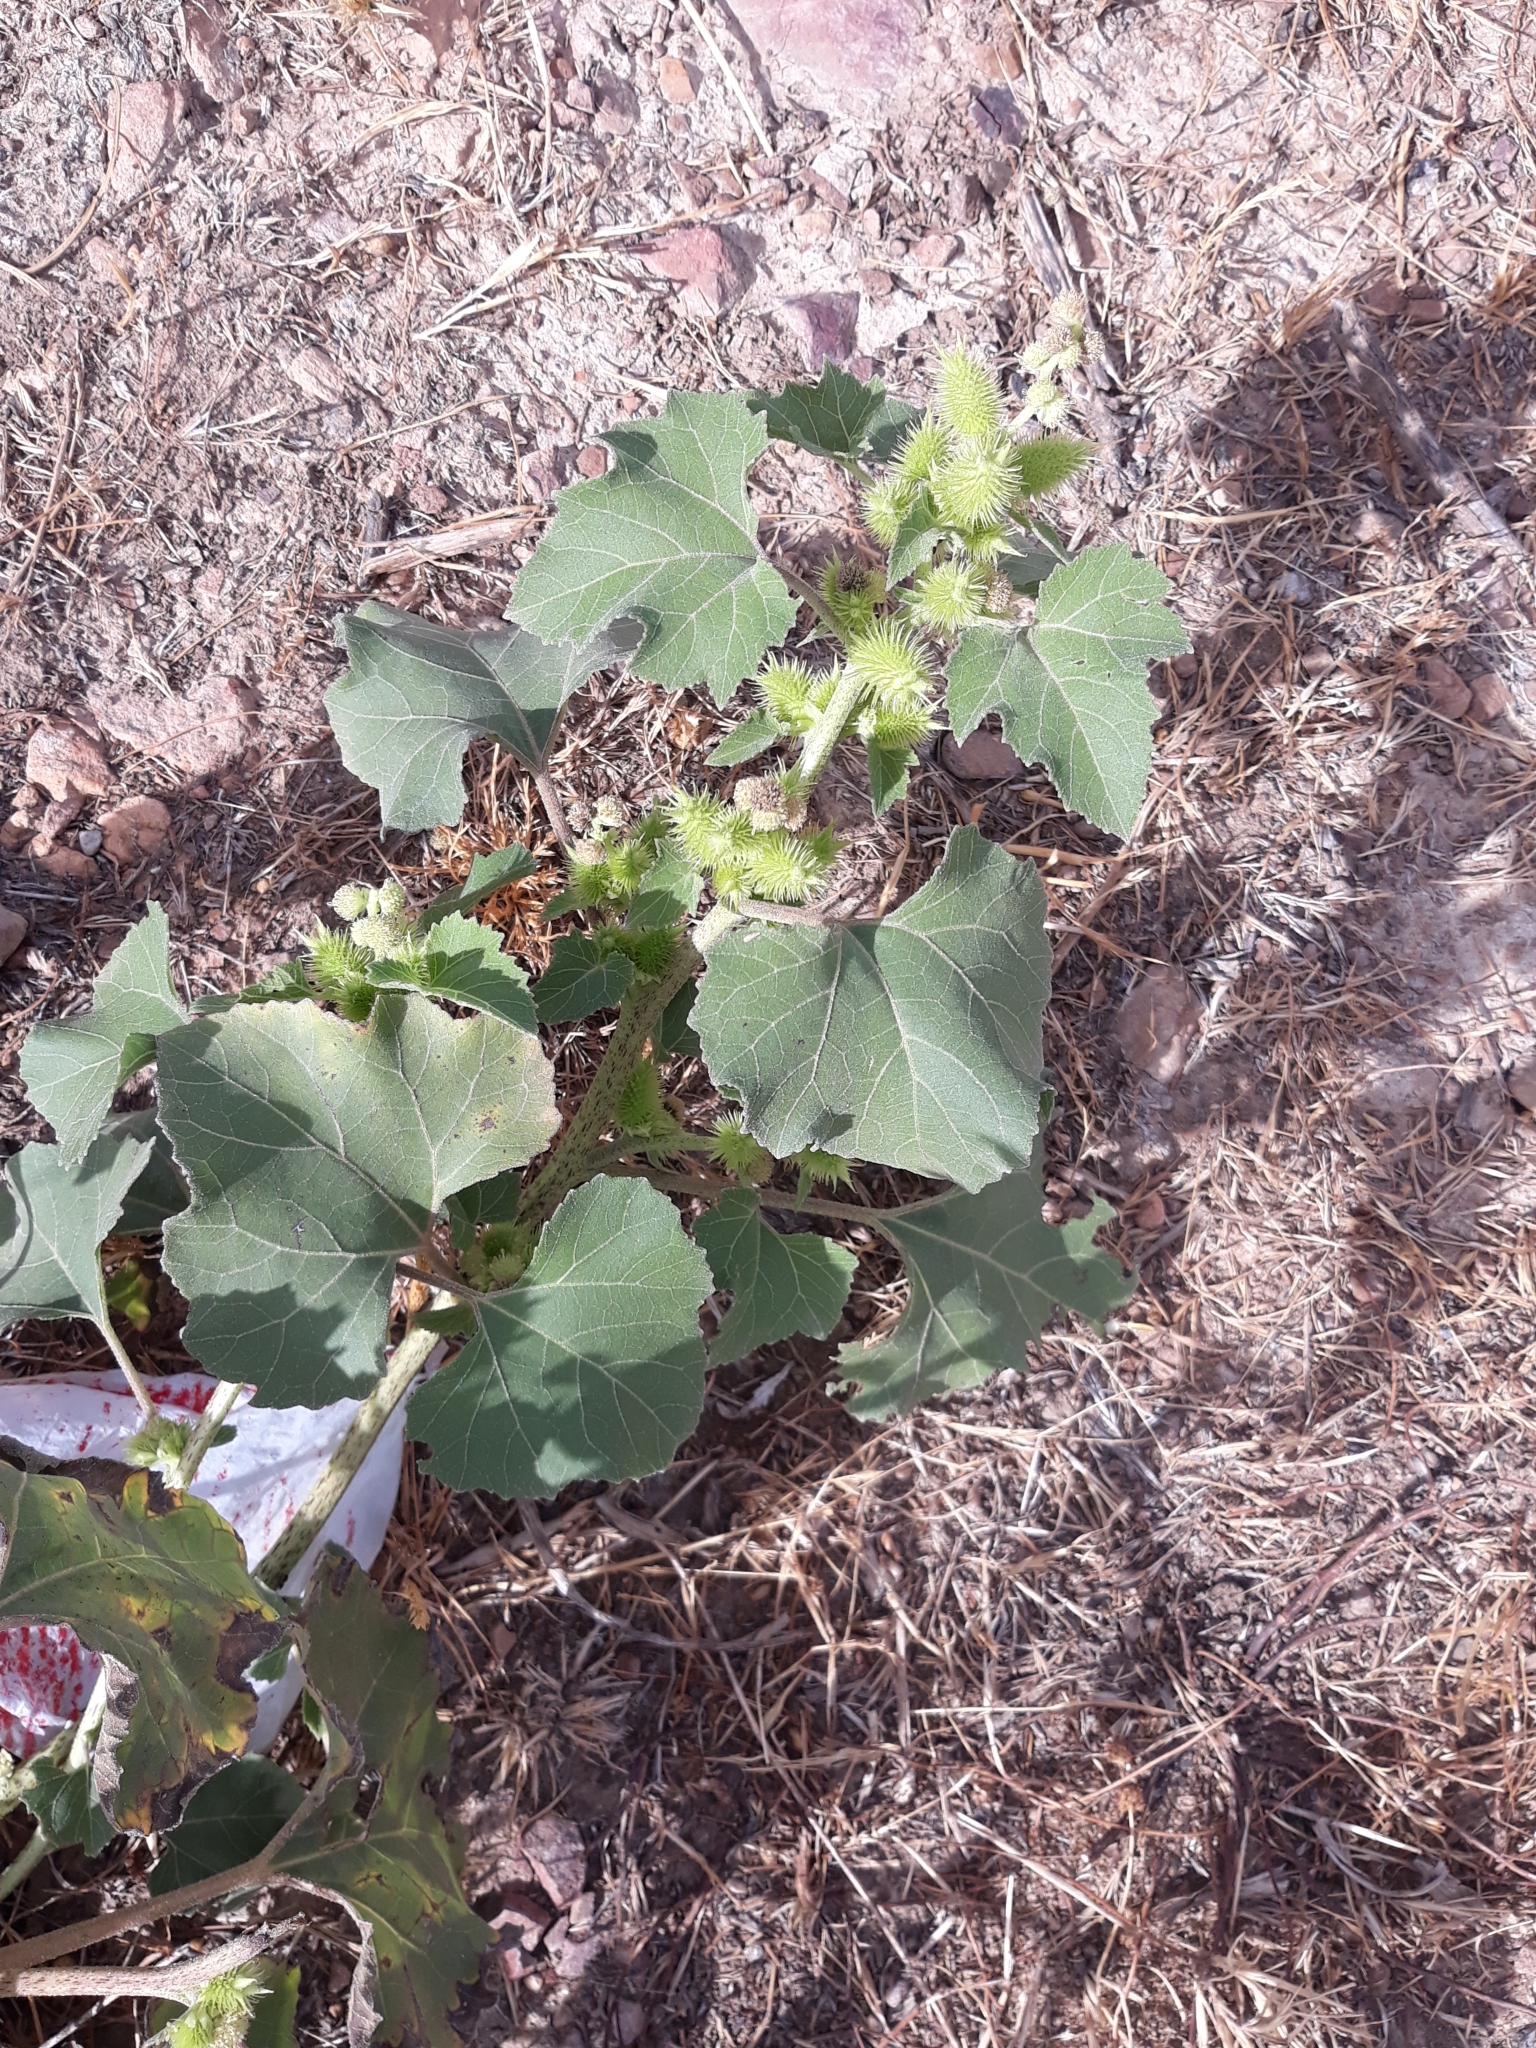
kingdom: Plantae
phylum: Tracheophyta
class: Magnoliopsida
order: Asterales
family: Asteraceae
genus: Xanthium
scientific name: Xanthium strumarium
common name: Rough cocklebur
